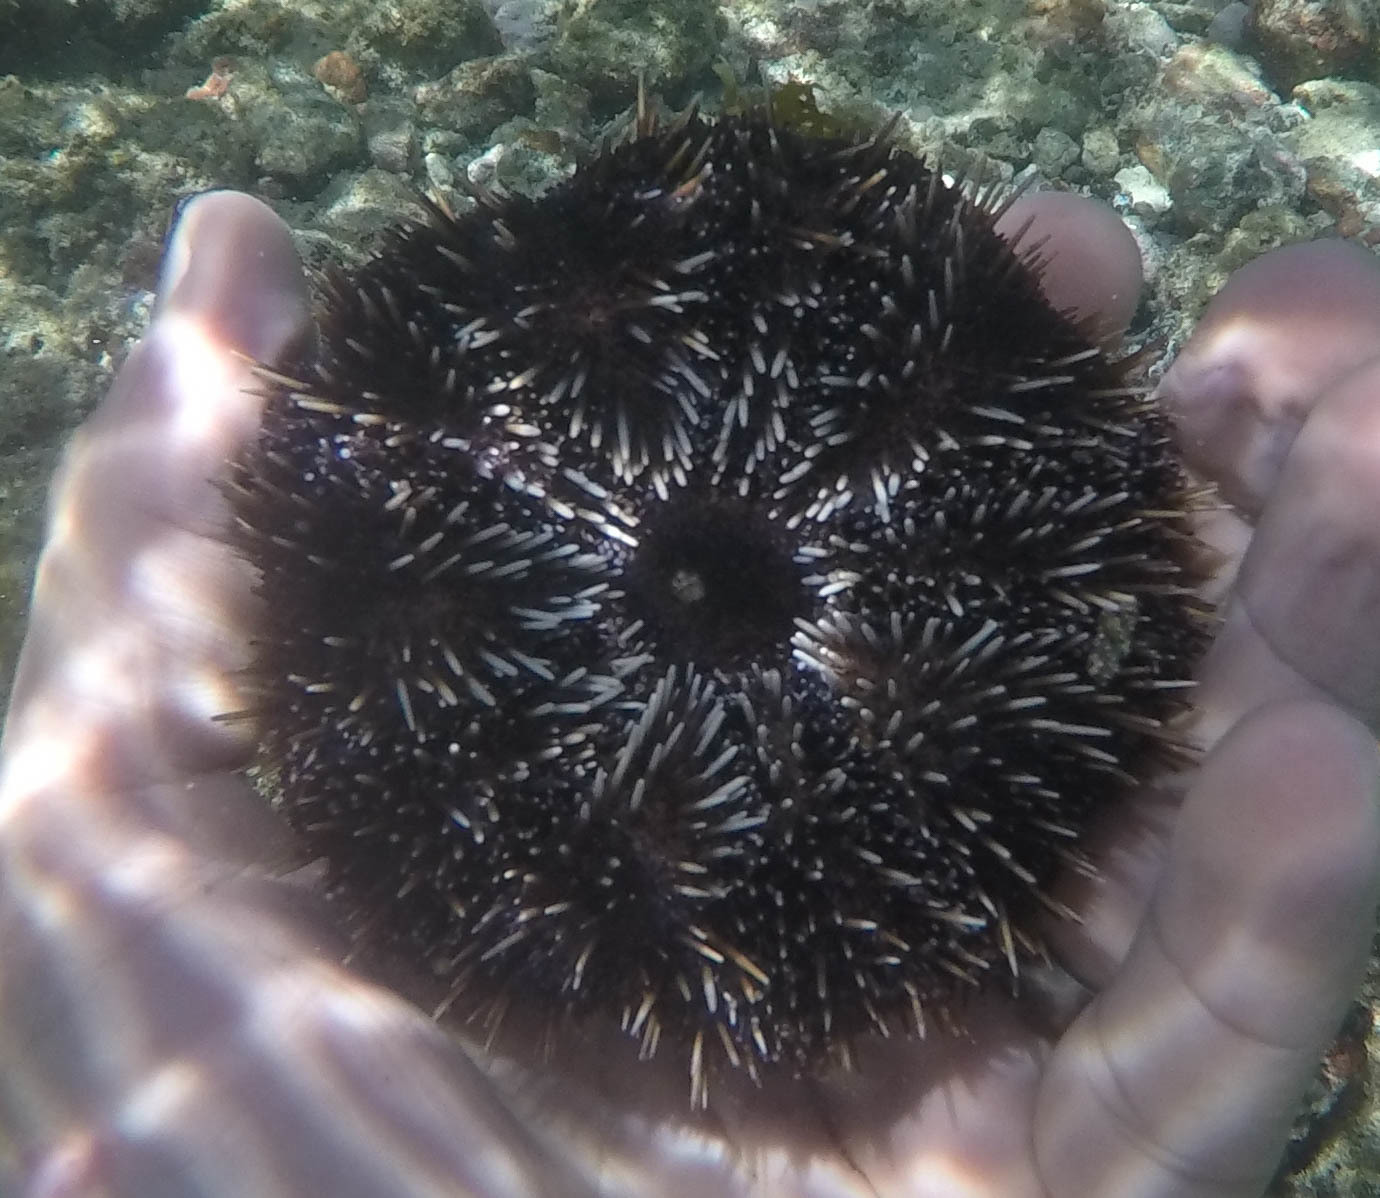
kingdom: Animalia
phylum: Echinodermata
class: Echinoidea
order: Camarodonta
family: Toxopneustidae
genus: Tripneustes
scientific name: Tripneustes gratilla
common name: Bischofsmützenseeigel
